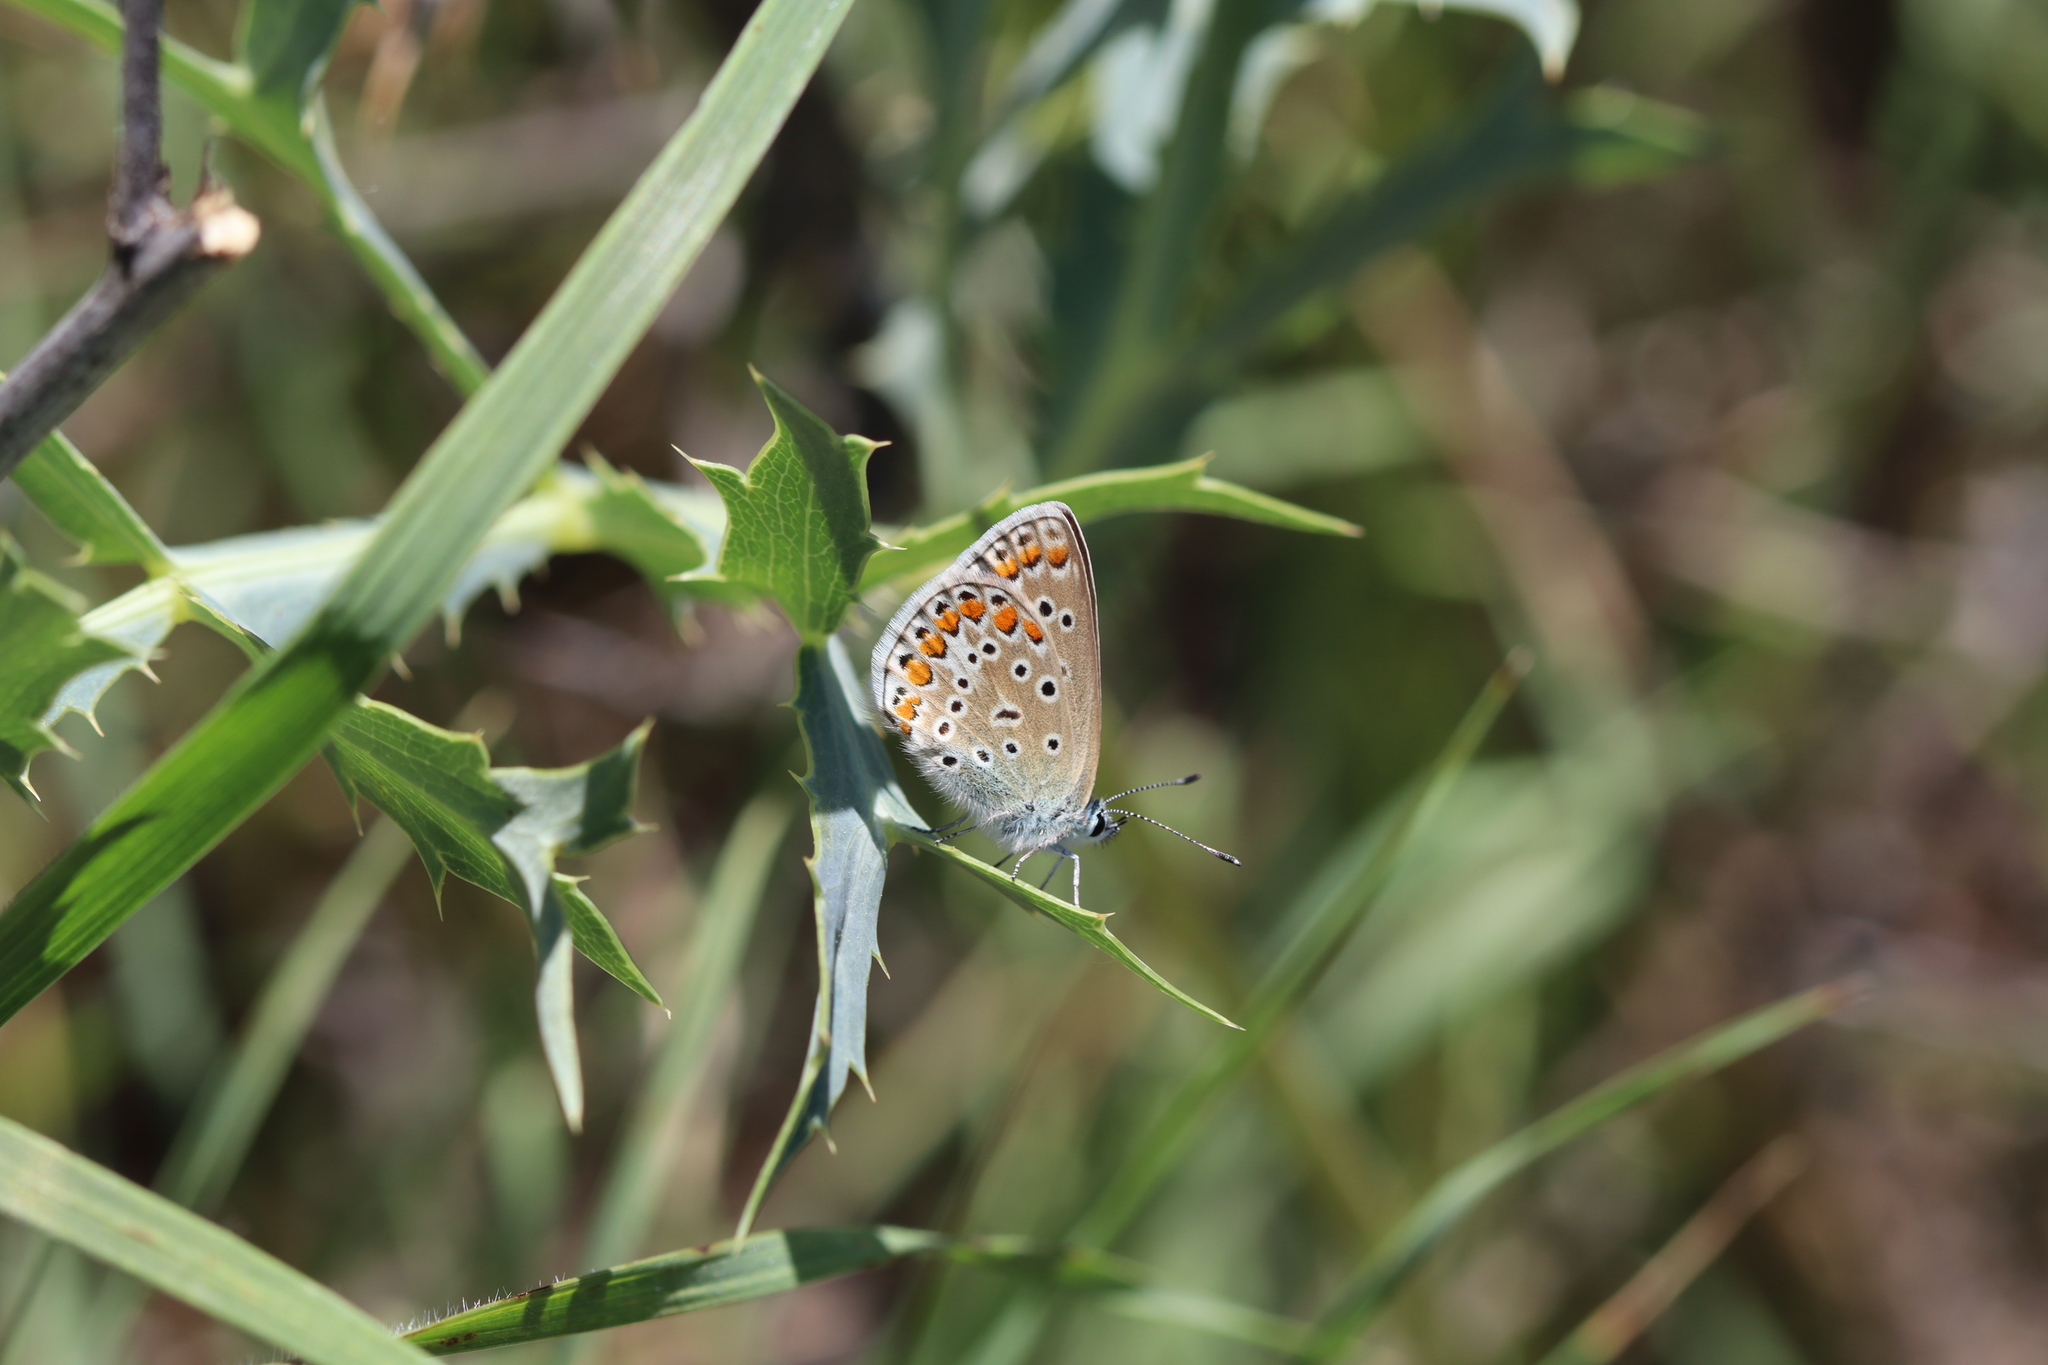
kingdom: Animalia
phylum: Arthropoda
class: Insecta
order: Lepidoptera
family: Lycaenidae
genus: Polyommatus
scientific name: Polyommatus icarus
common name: Common blue
